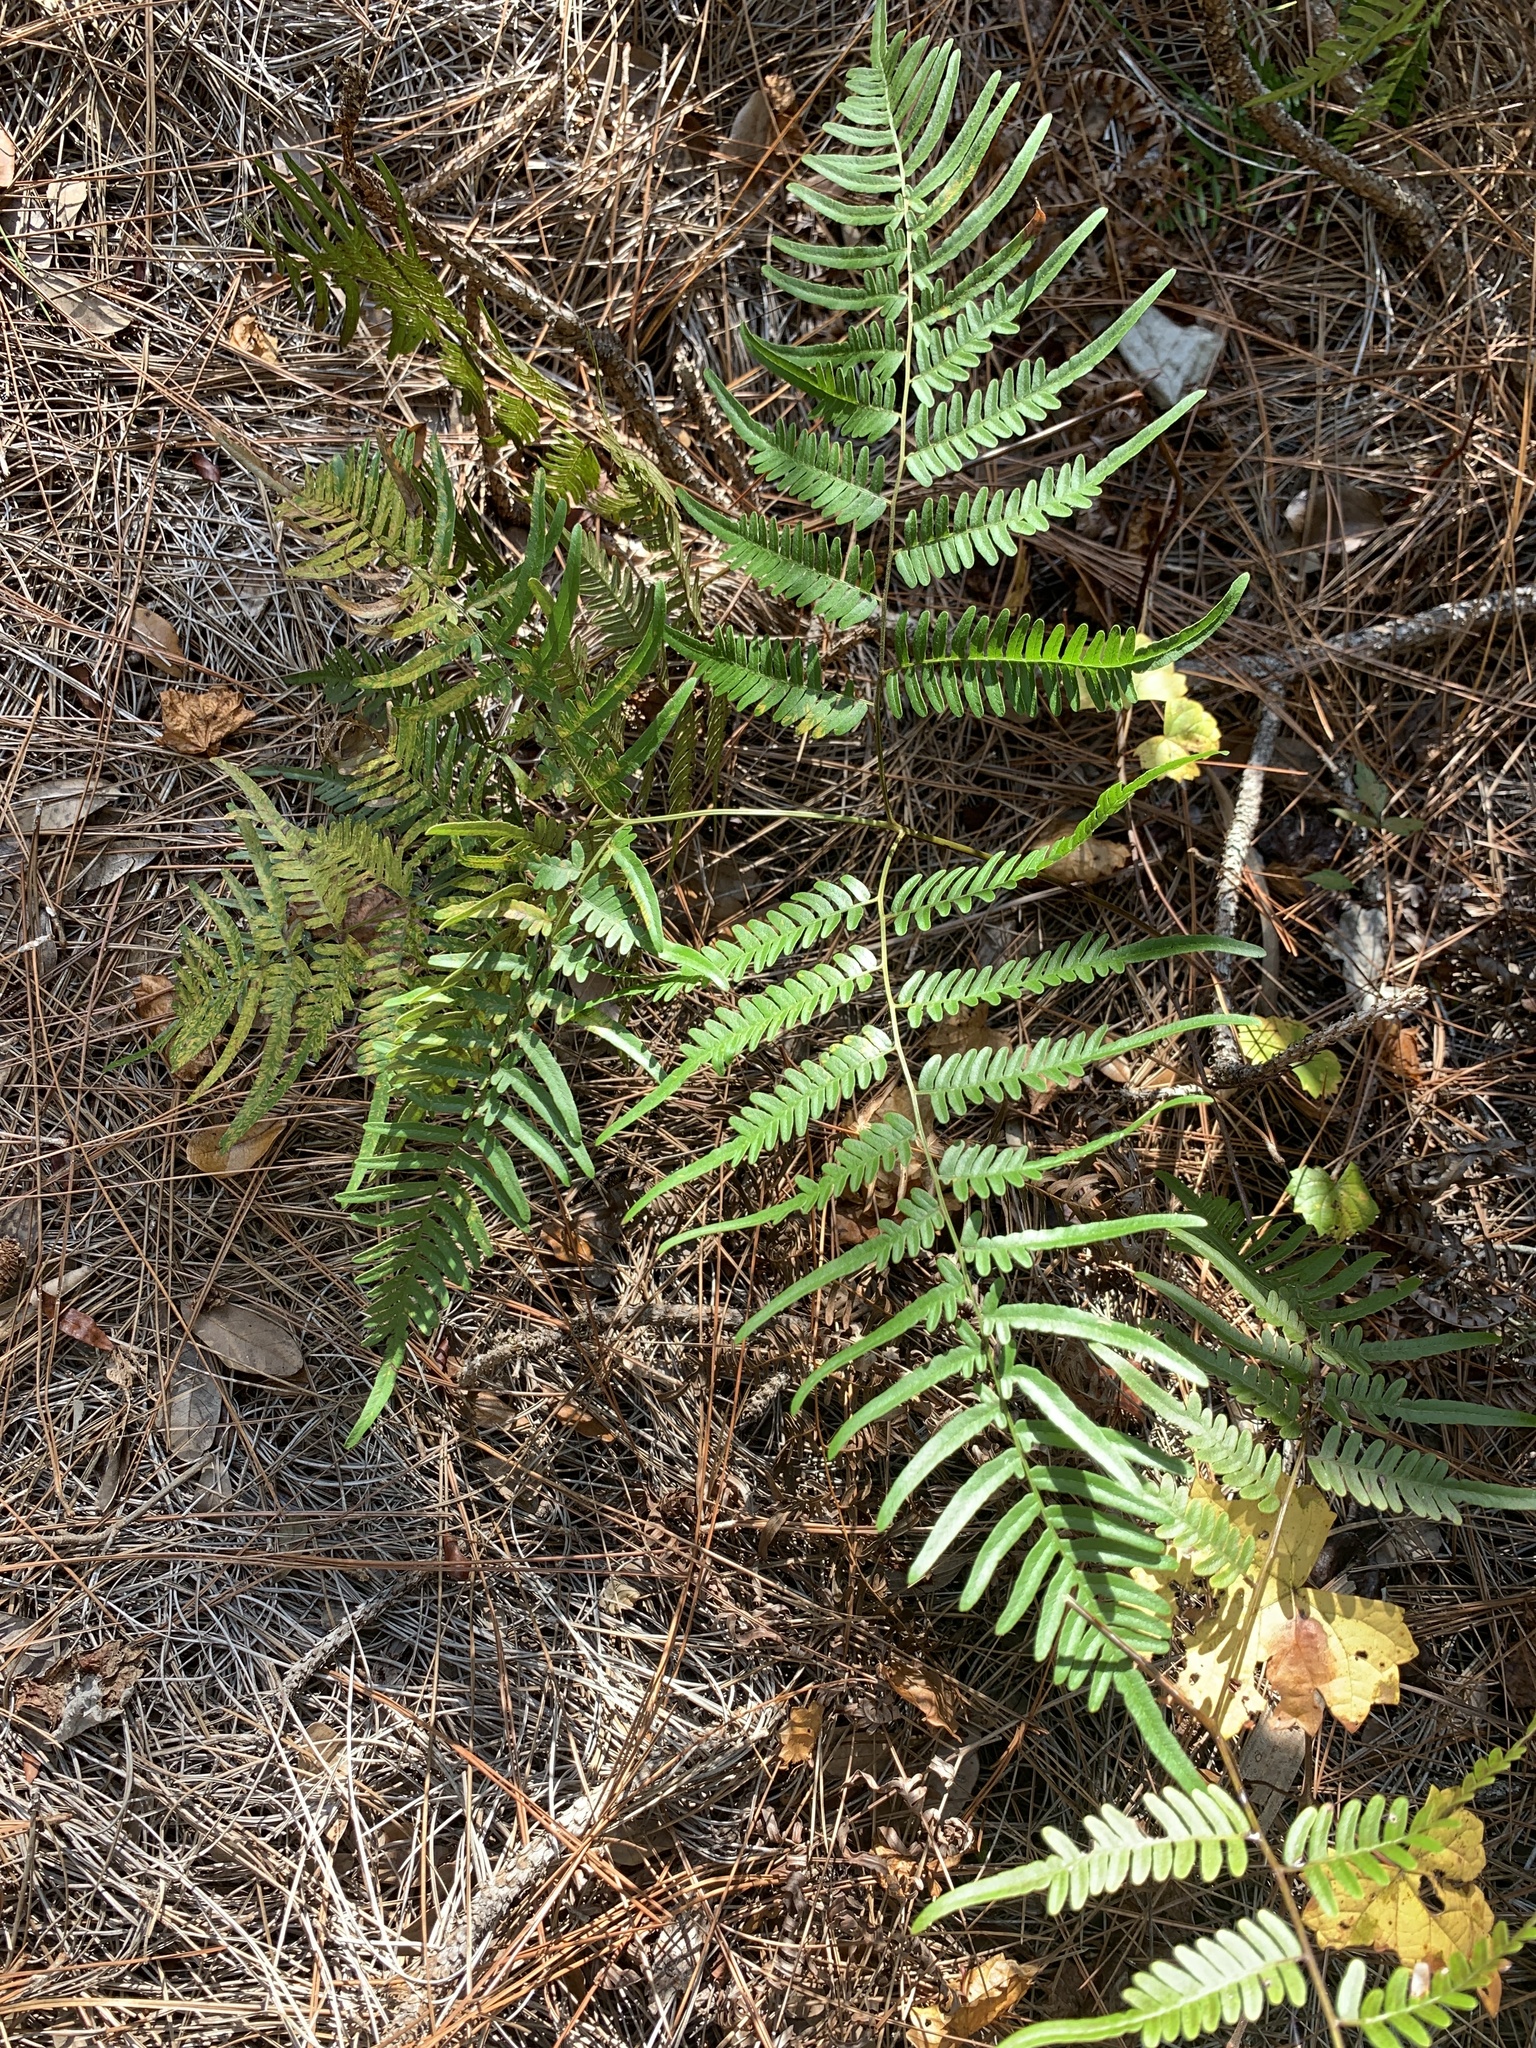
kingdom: Plantae
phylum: Tracheophyta
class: Polypodiopsida
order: Polypodiales
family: Dennstaedtiaceae
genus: Pteridium
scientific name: Pteridium
